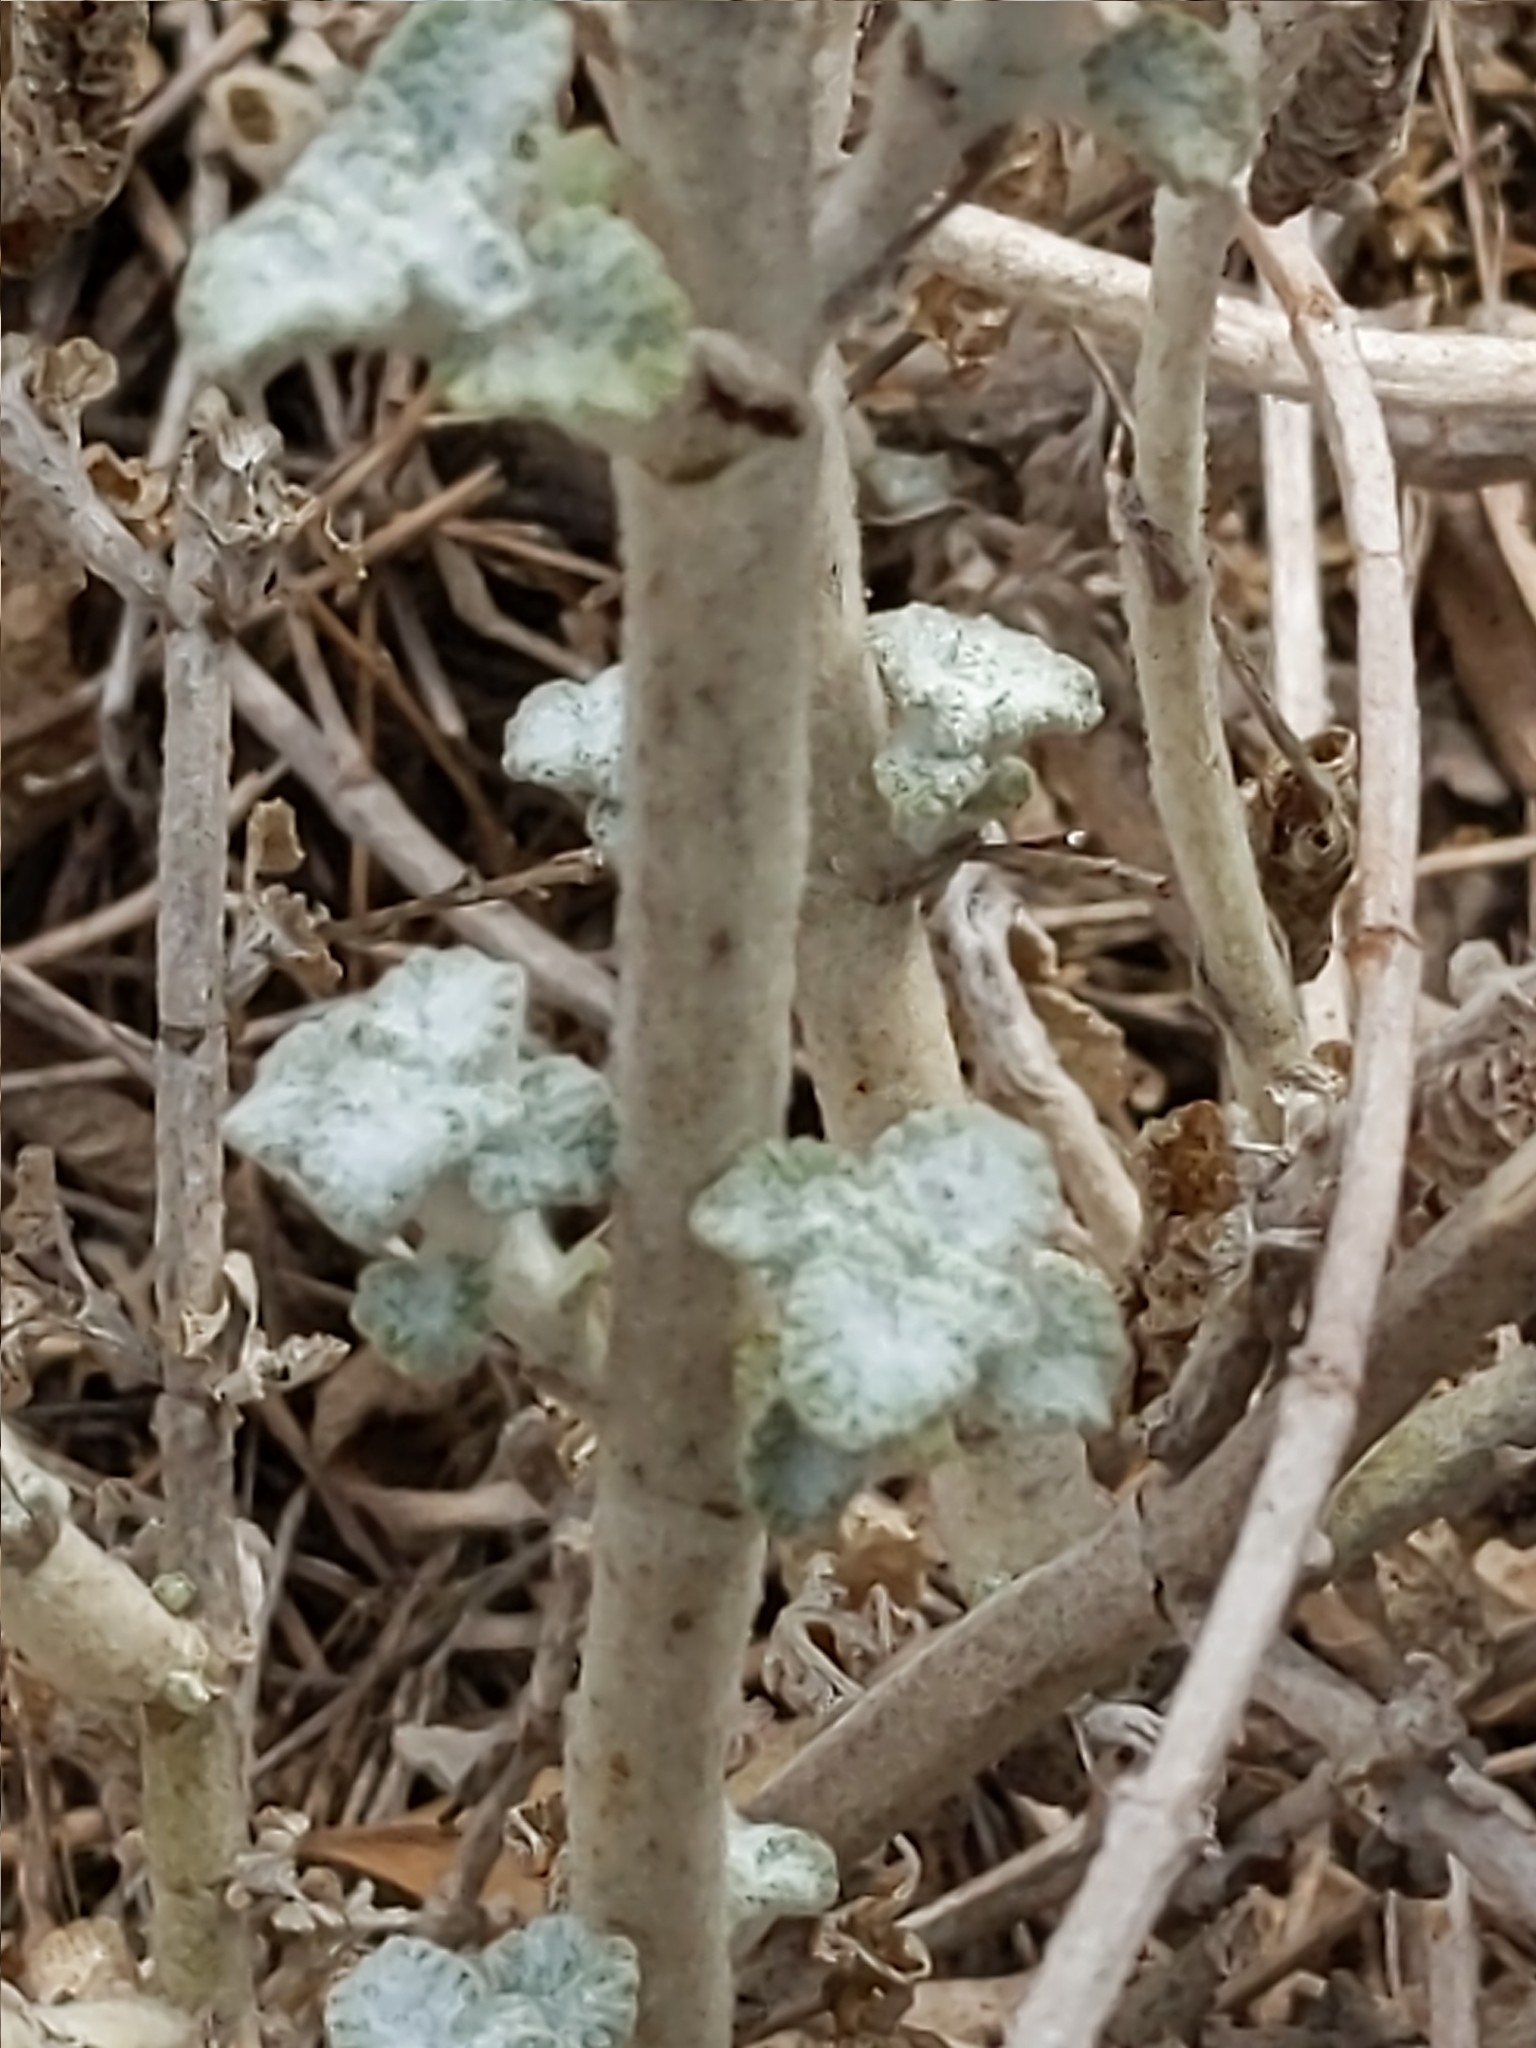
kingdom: Plantae
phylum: Tracheophyta
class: Magnoliopsida
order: Lamiales
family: Lamiaceae
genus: Marrubium
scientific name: Marrubium vulgare
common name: Horehound
